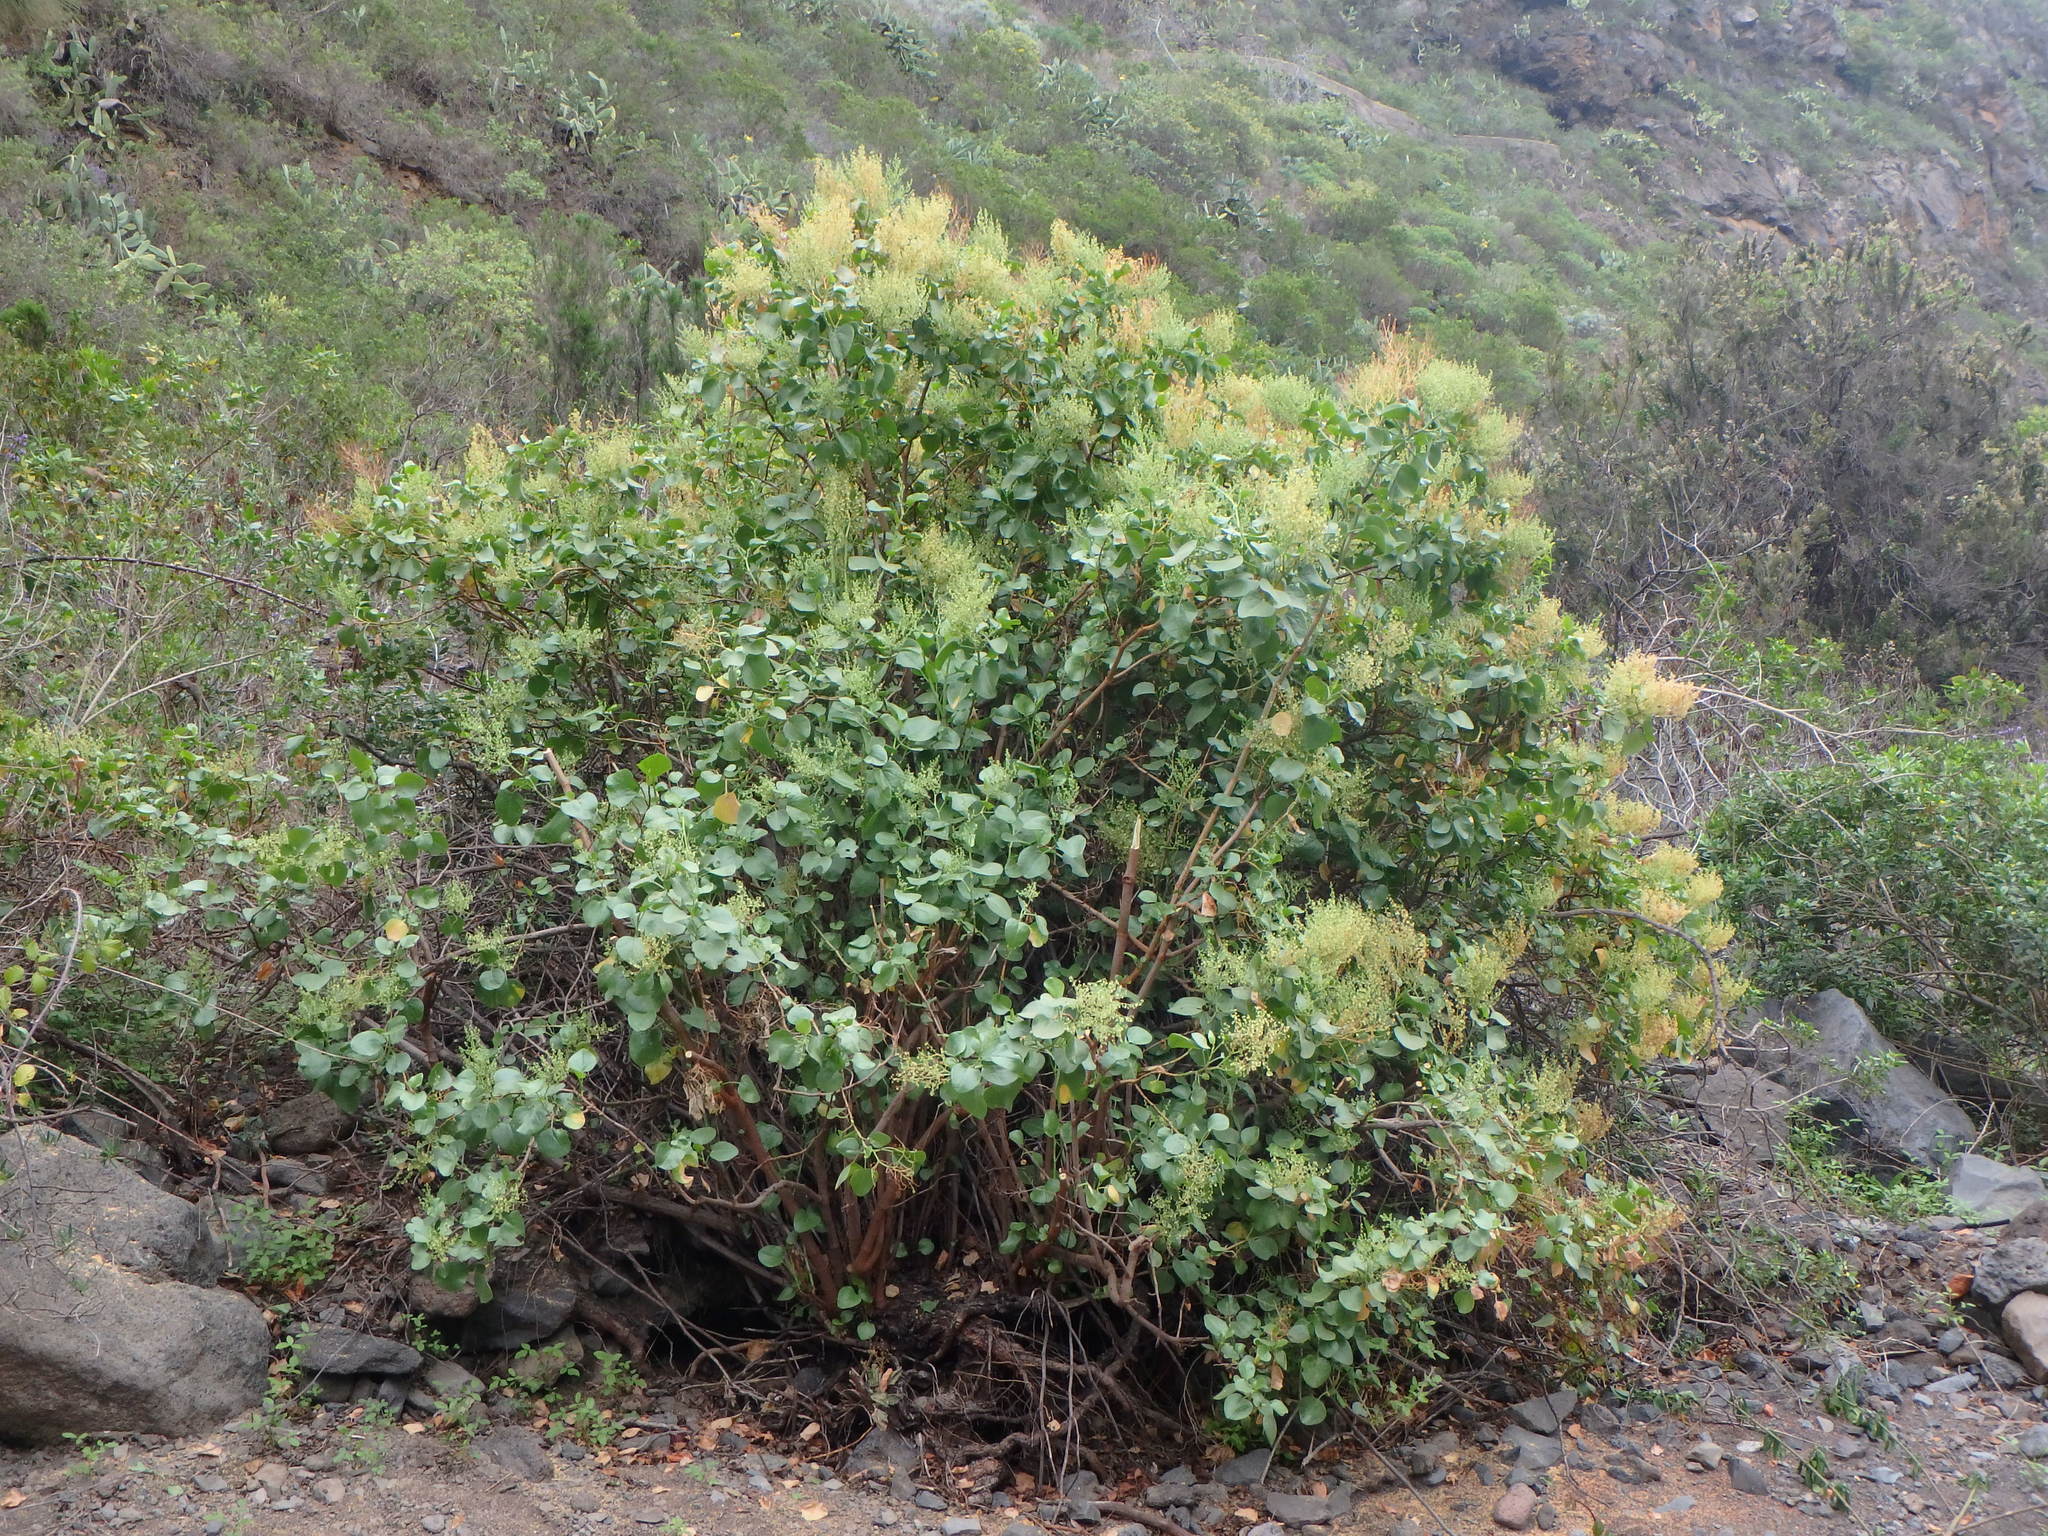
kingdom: Plantae
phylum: Tracheophyta
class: Magnoliopsida
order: Caryophyllales
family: Polygonaceae
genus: Rumex
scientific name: Rumex lunaria
